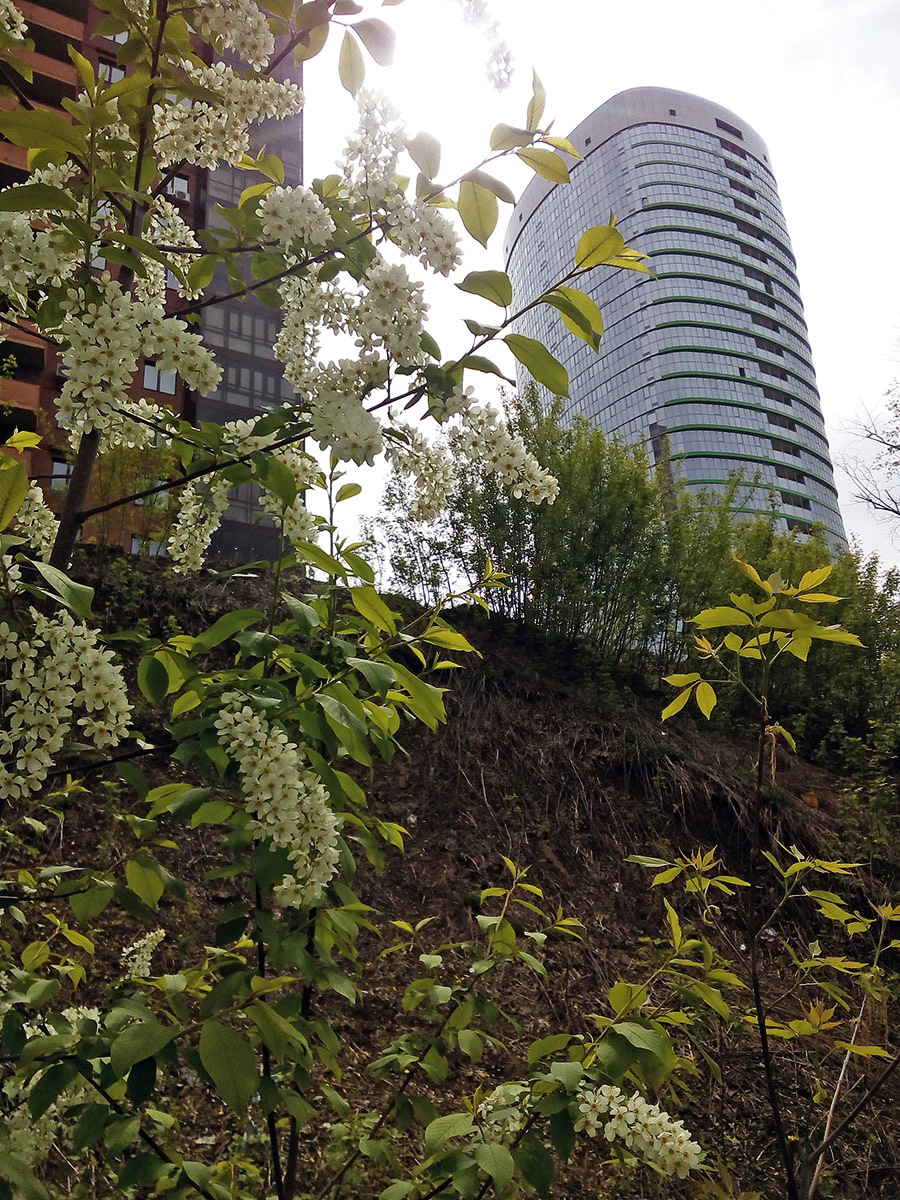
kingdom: Plantae
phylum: Tracheophyta
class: Magnoliopsida
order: Rosales
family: Rosaceae
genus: Prunus
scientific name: Prunus padus
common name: Bird cherry
